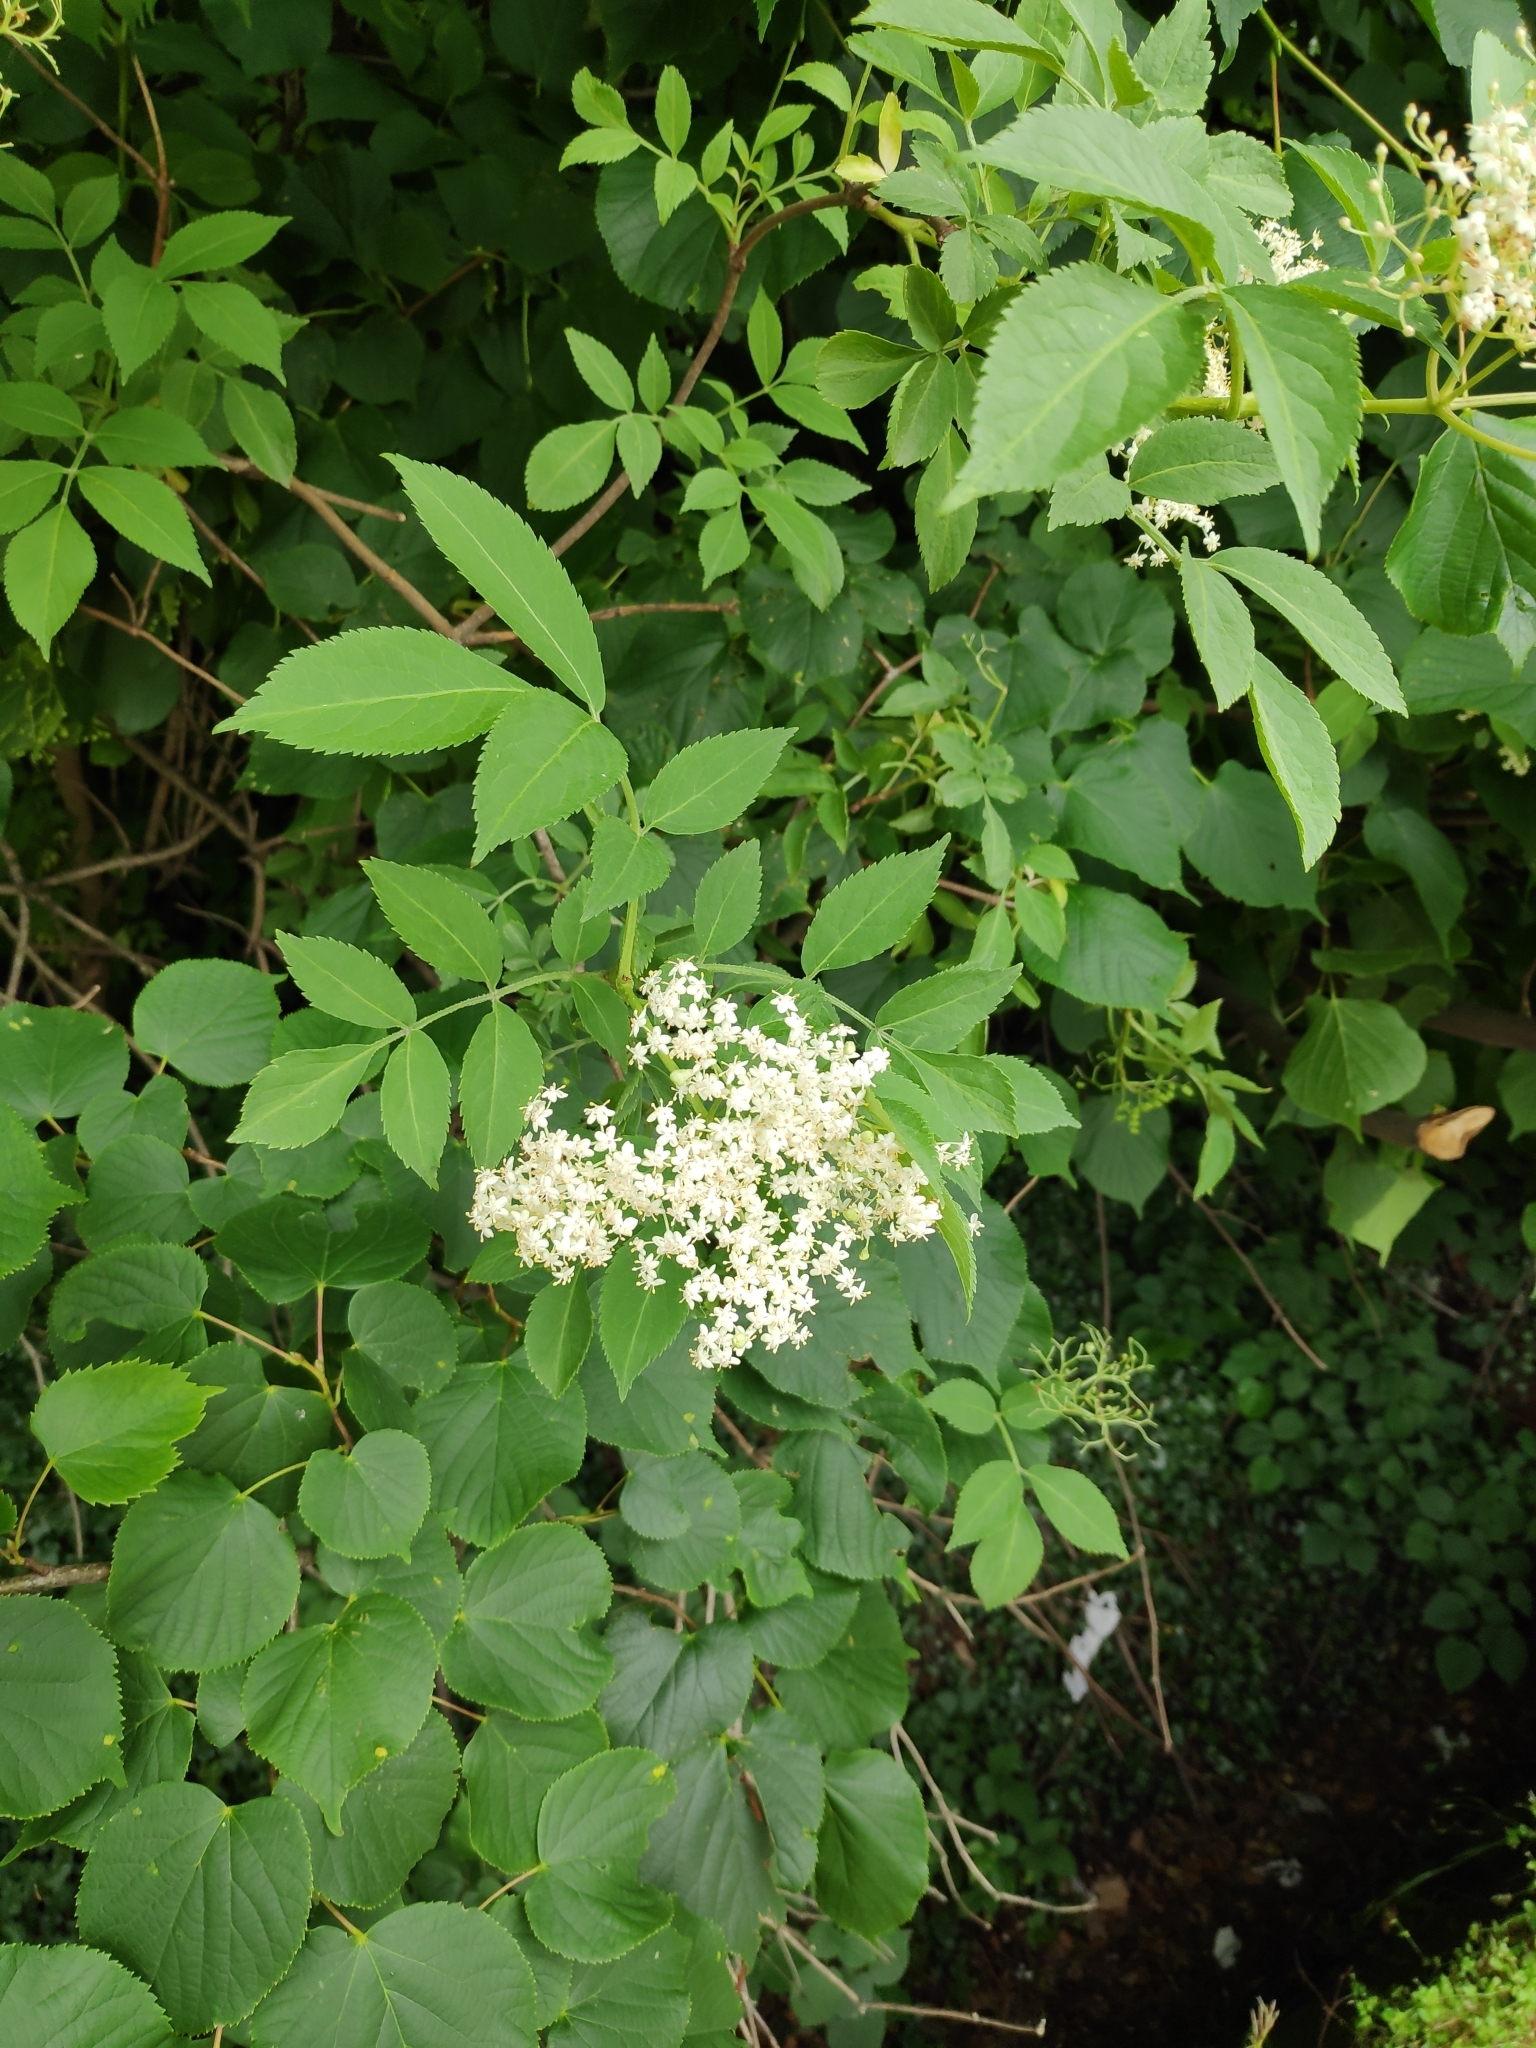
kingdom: Plantae
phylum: Tracheophyta
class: Magnoliopsida
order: Dipsacales
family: Viburnaceae
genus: Sambucus
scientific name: Sambucus nigra
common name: Elder
